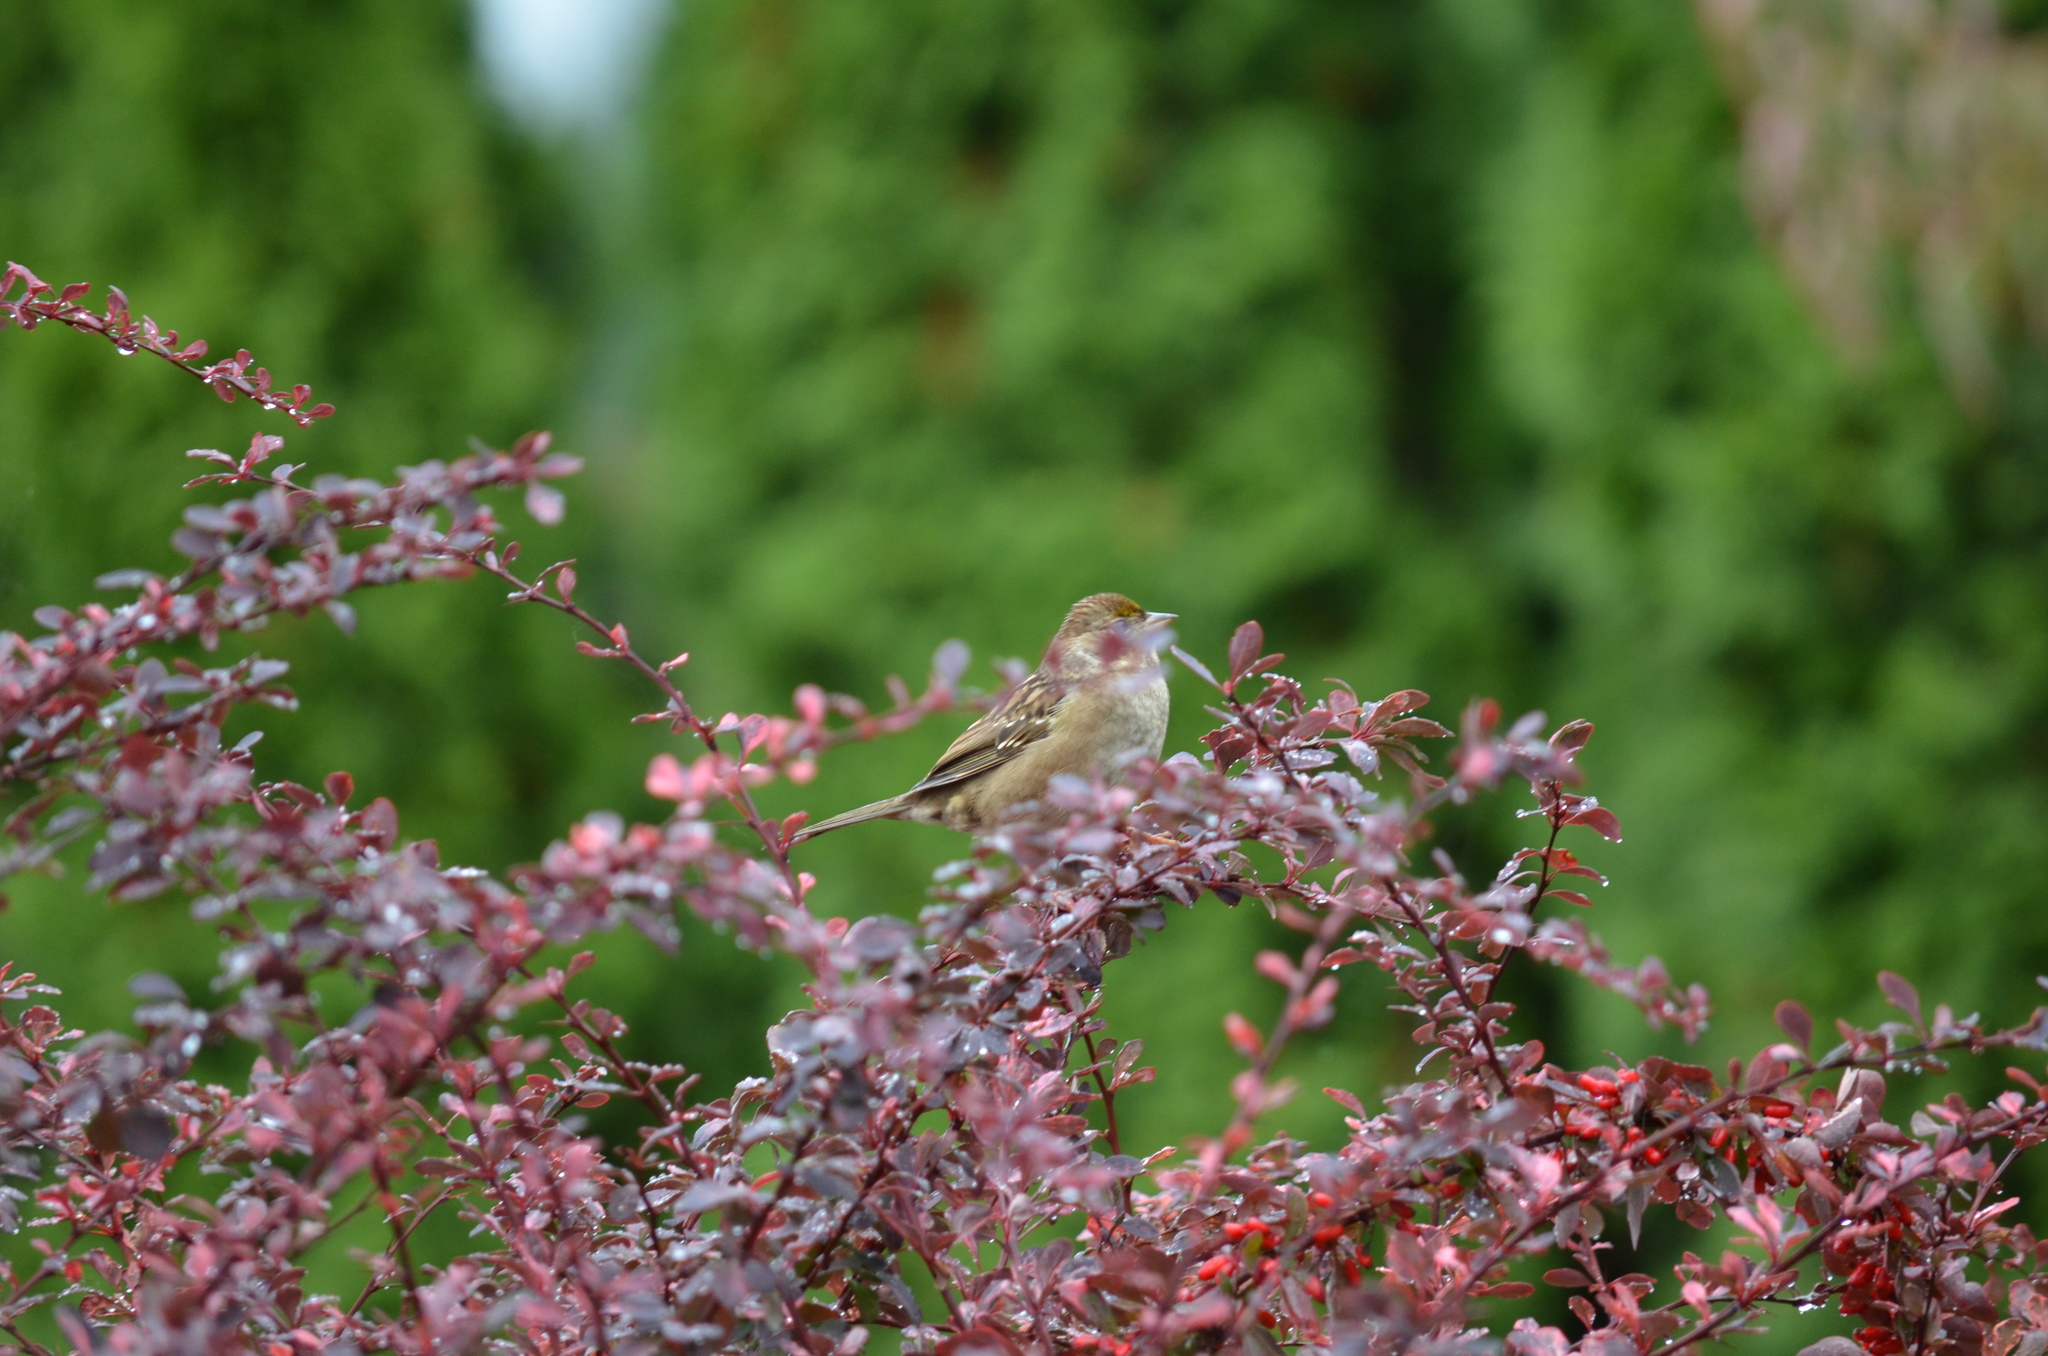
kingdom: Animalia
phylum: Chordata
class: Aves
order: Passeriformes
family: Passerellidae
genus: Zonotrichia
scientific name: Zonotrichia atricapilla
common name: Golden-crowned sparrow
